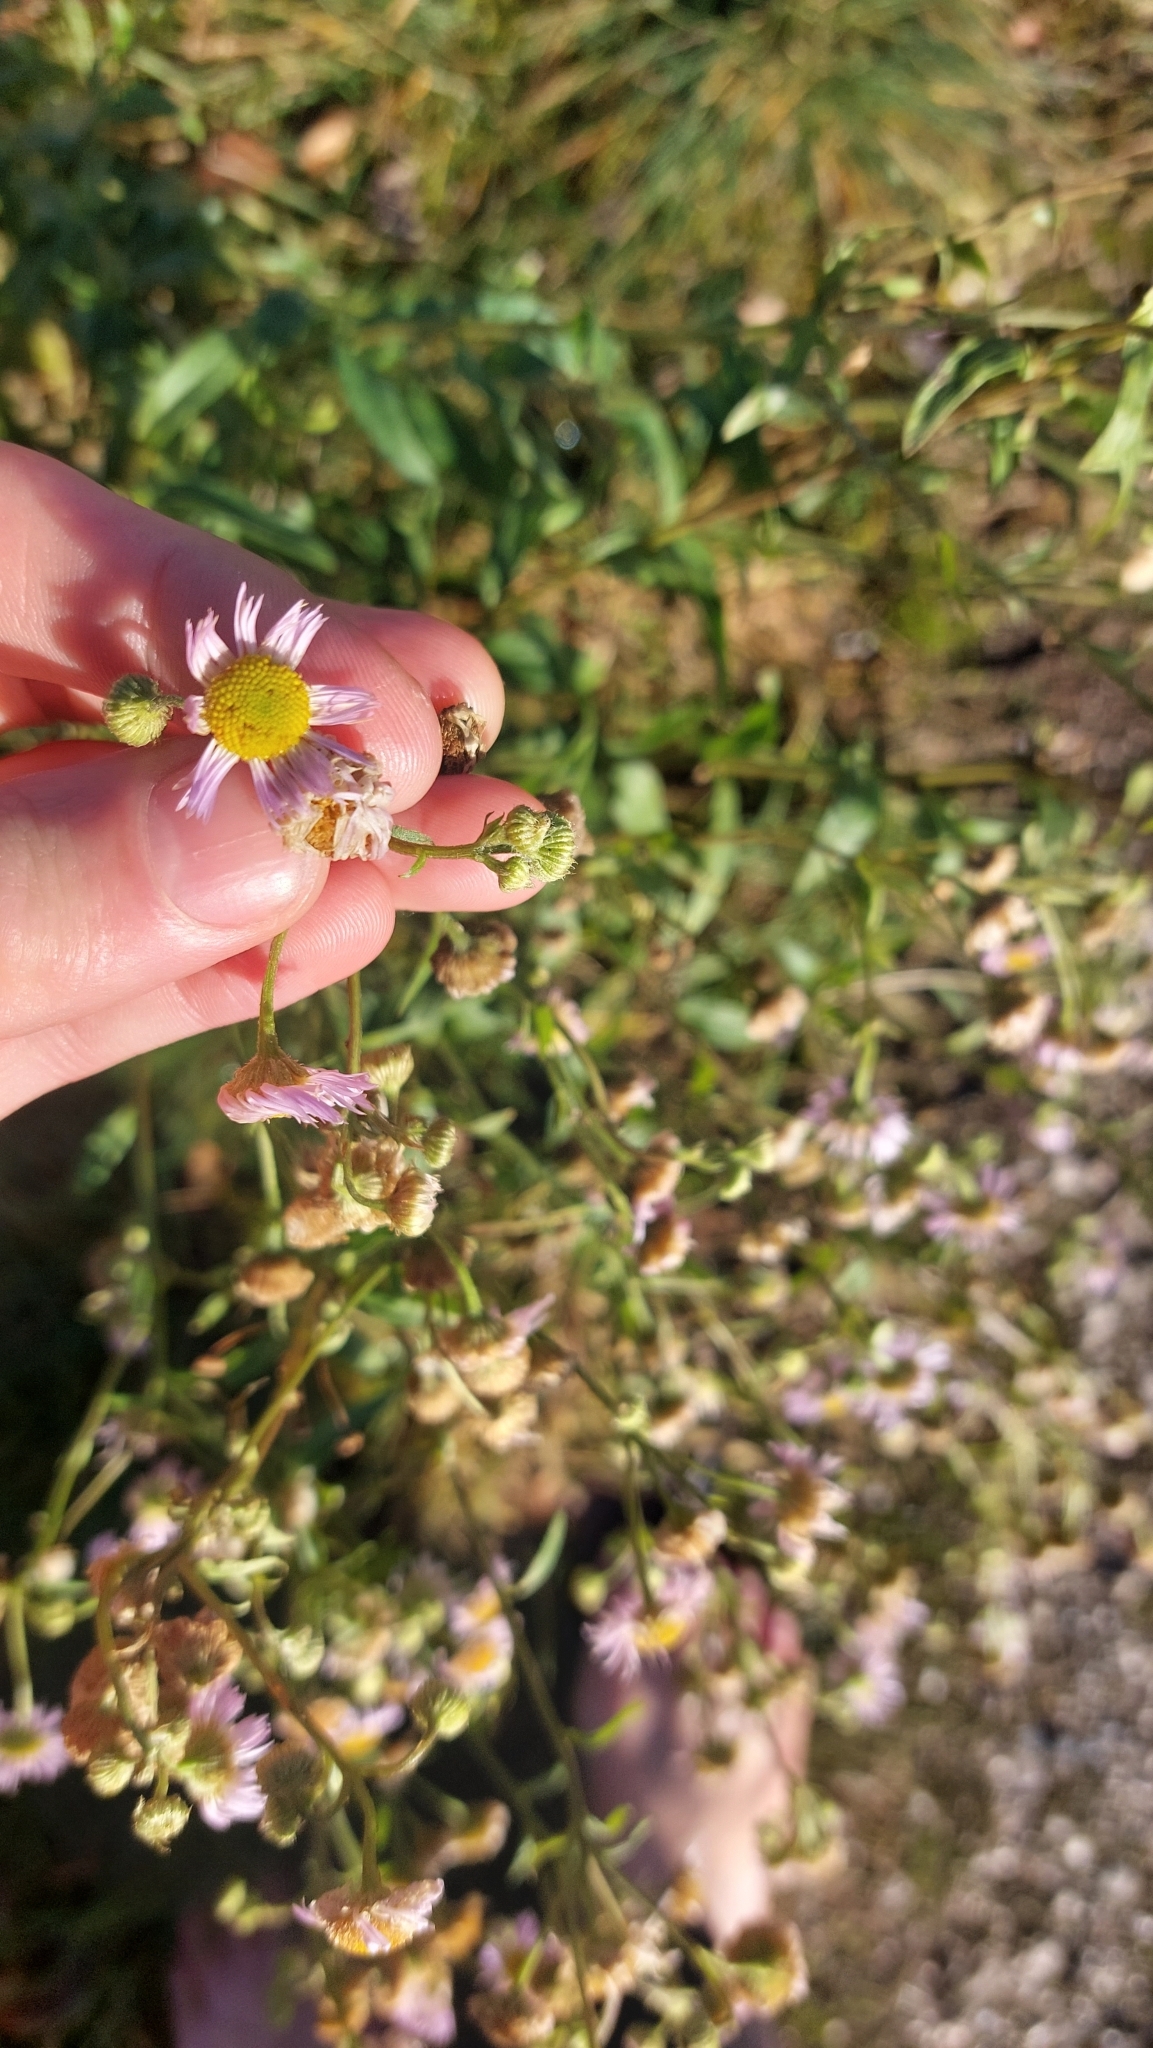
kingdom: Plantae
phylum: Tracheophyta
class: Magnoliopsida
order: Asterales
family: Asteraceae
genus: Erigeron
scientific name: Erigeron annuus
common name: Tall fleabane
